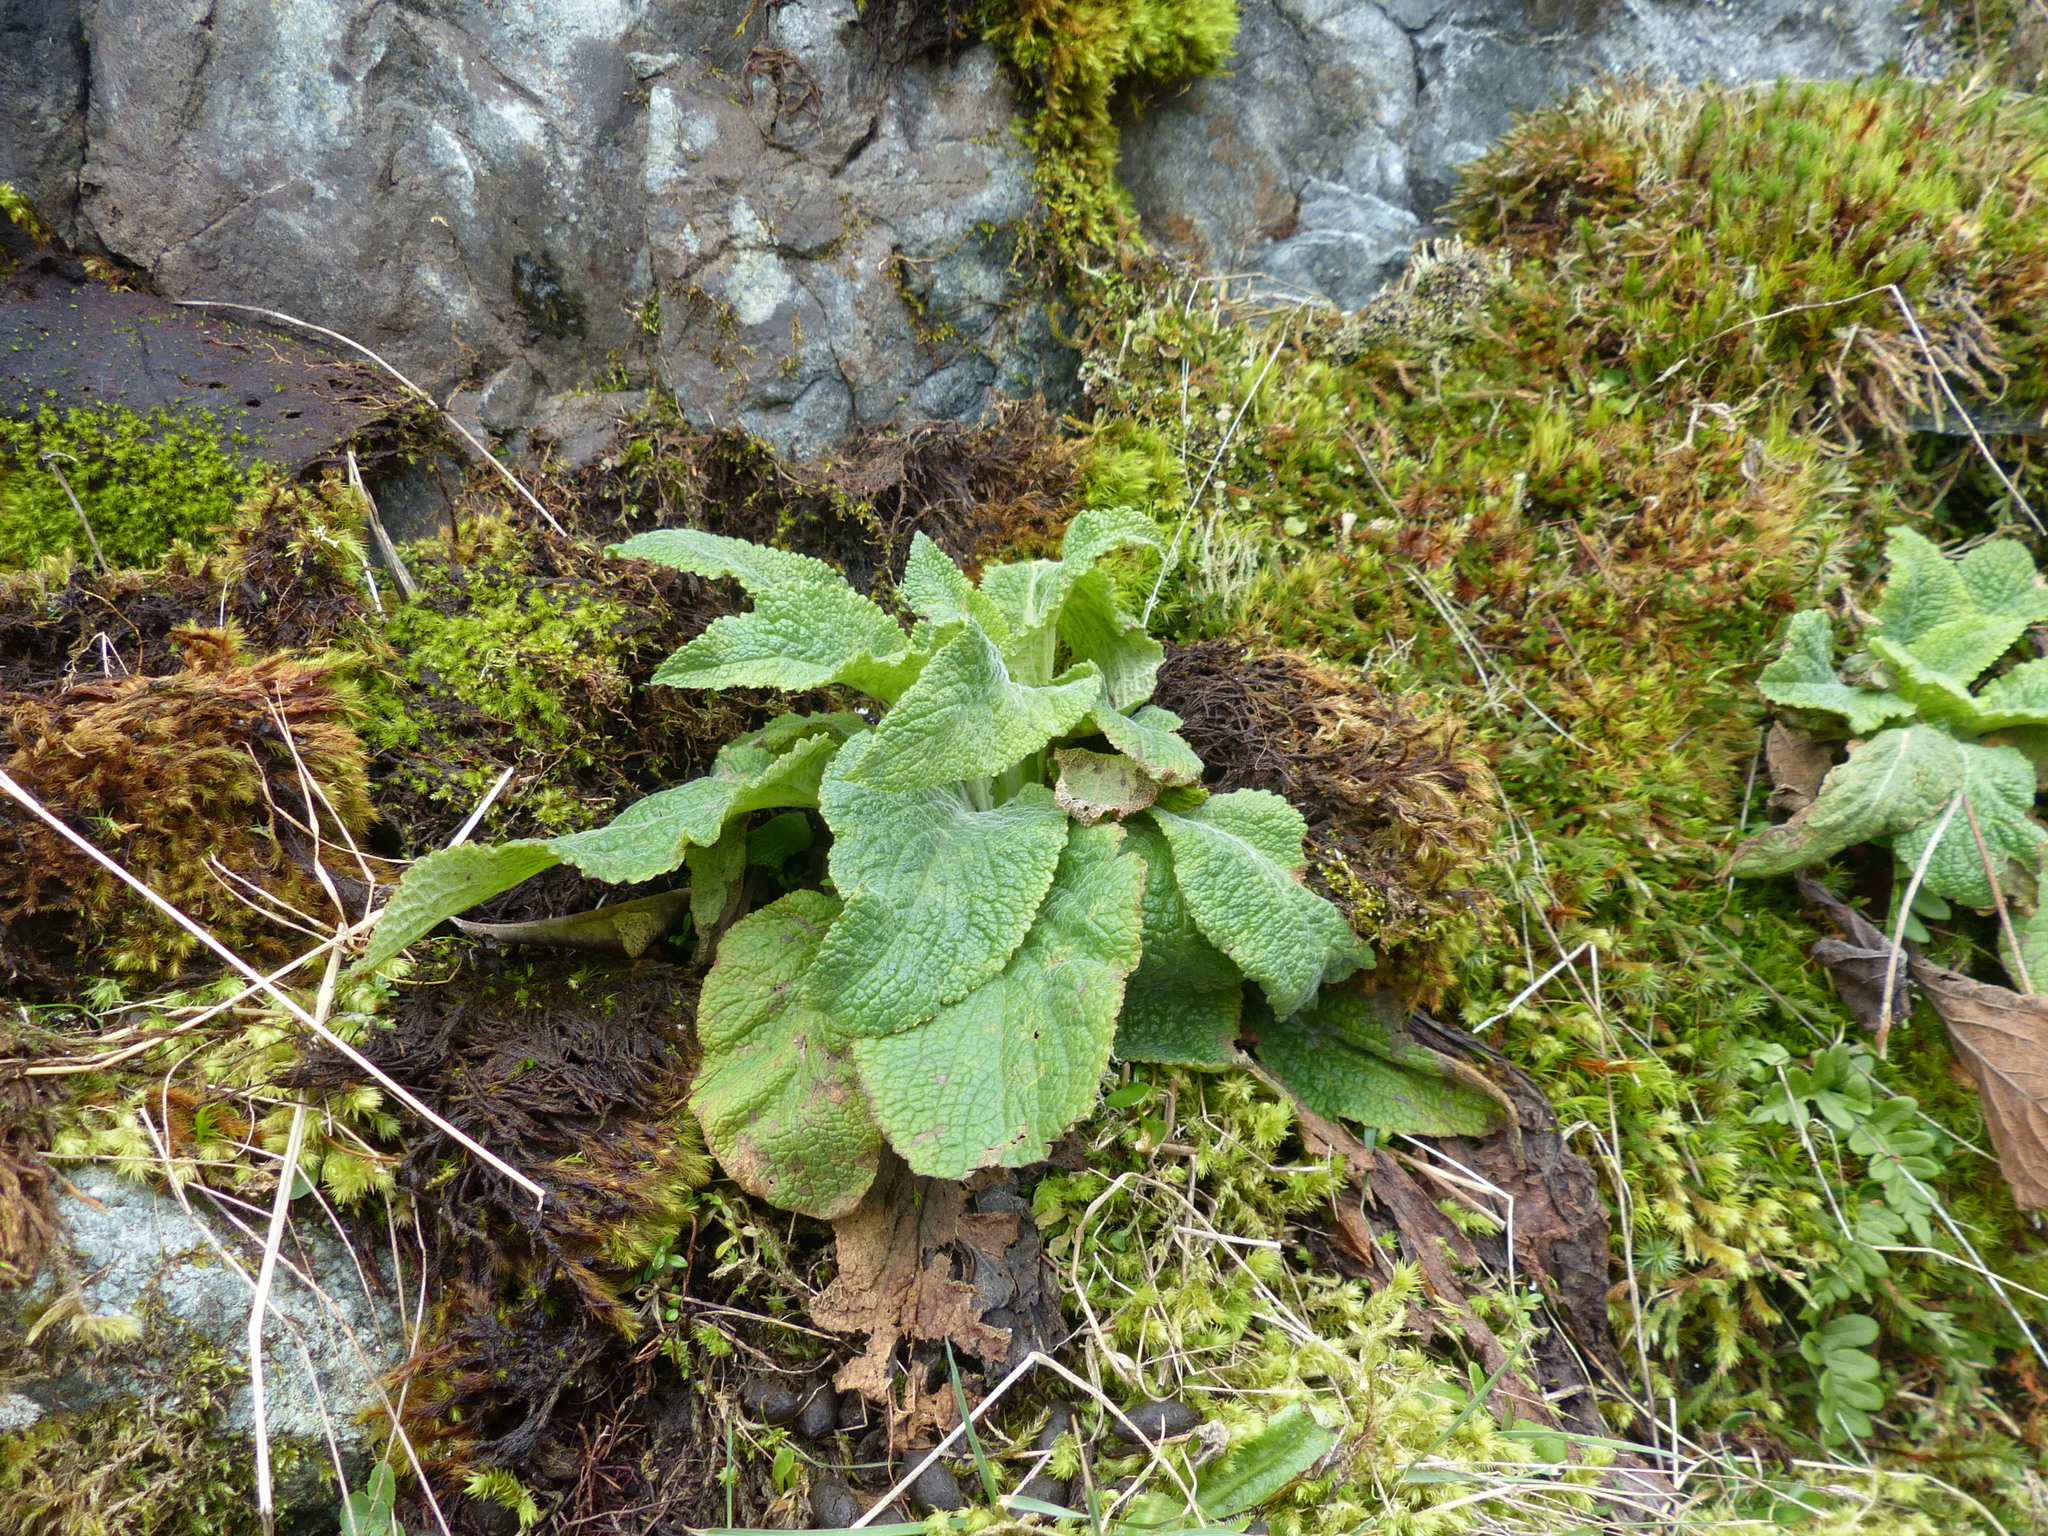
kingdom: Plantae
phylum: Tracheophyta
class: Magnoliopsida
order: Lamiales
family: Plantaginaceae
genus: Digitalis
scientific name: Digitalis purpurea
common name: Foxglove
